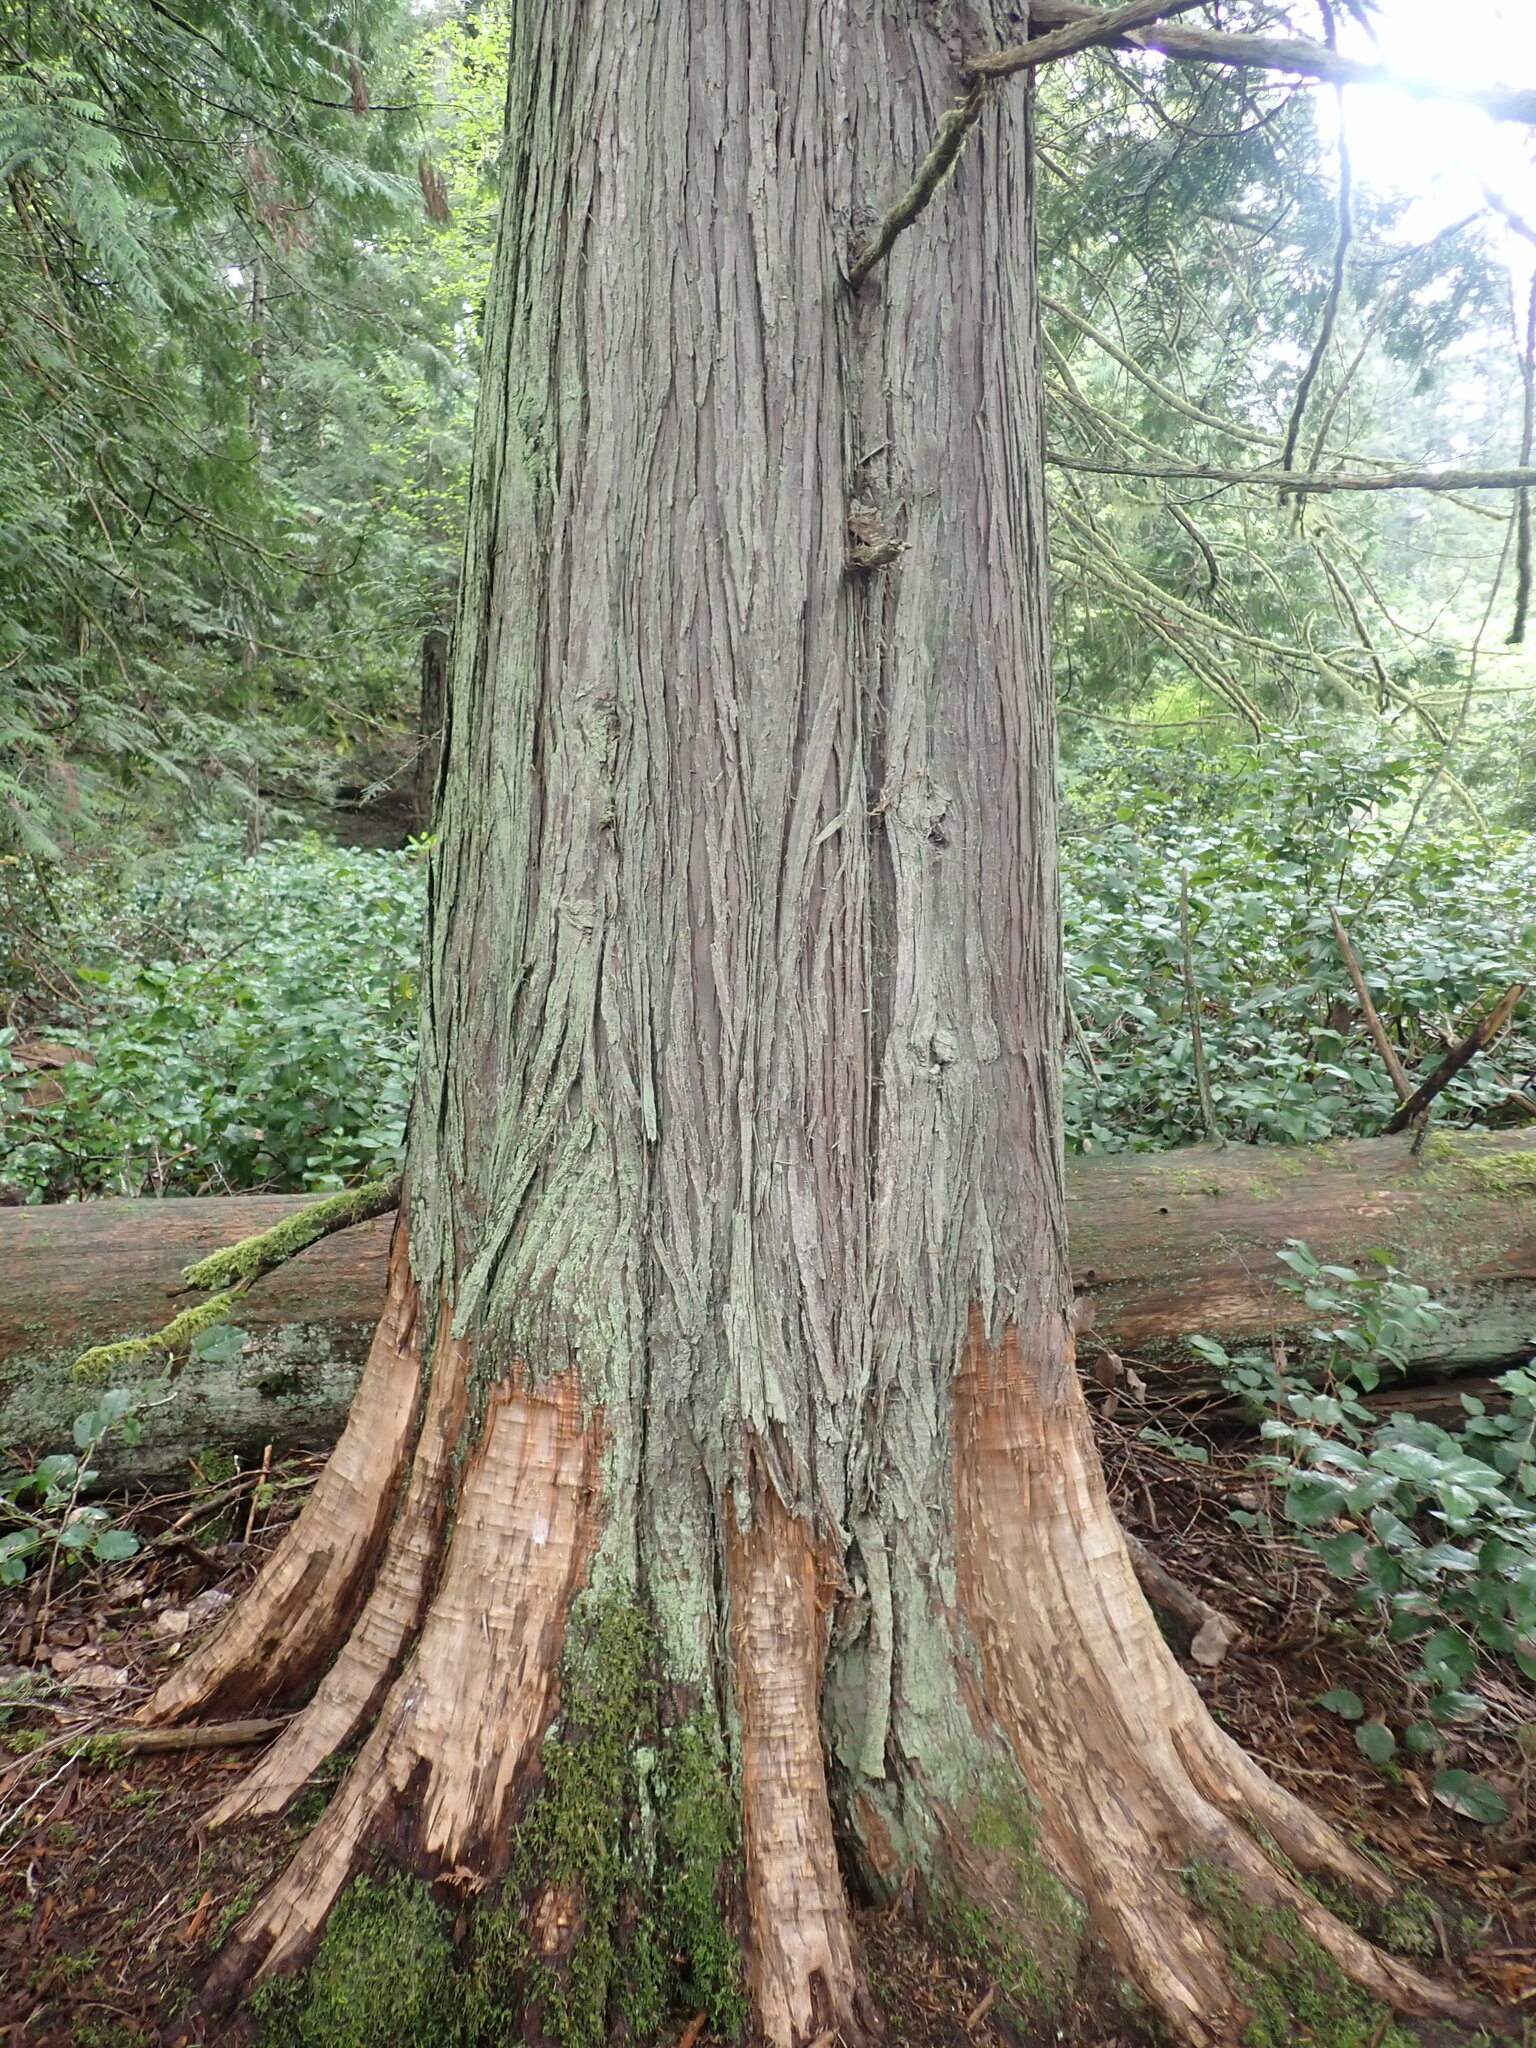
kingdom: Plantae
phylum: Tracheophyta
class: Pinopsida
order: Pinales
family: Cupressaceae
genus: Thuja
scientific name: Thuja plicata
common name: Western red-cedar
